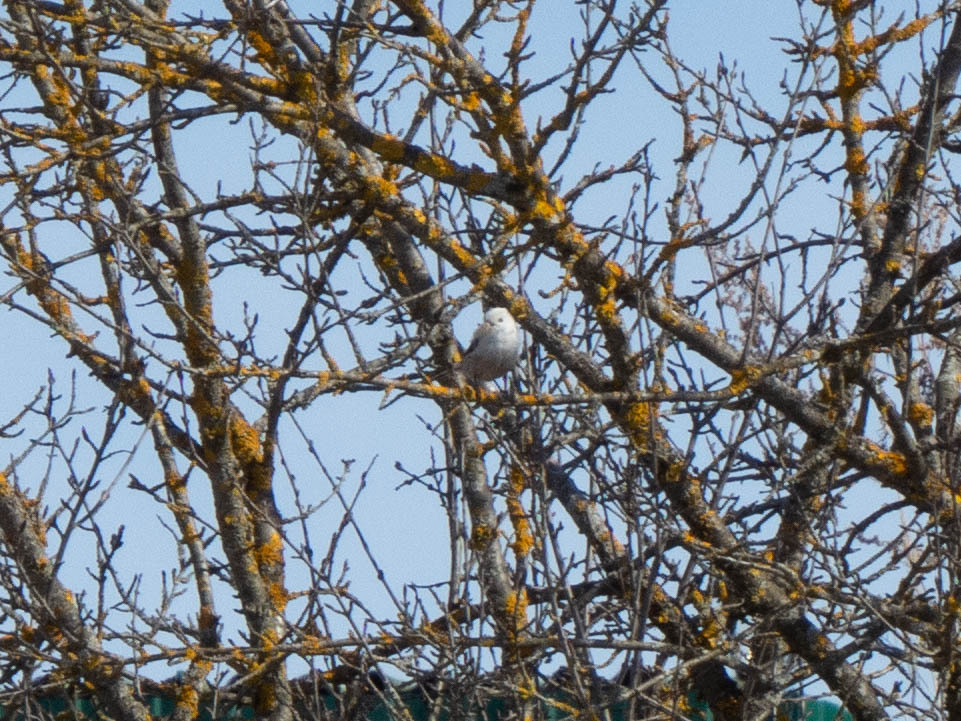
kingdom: Animalia
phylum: Chordata
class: Aves
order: Passeriformes
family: Aegithalidae
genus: Aegithalos
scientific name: Aegithalos caudatus
